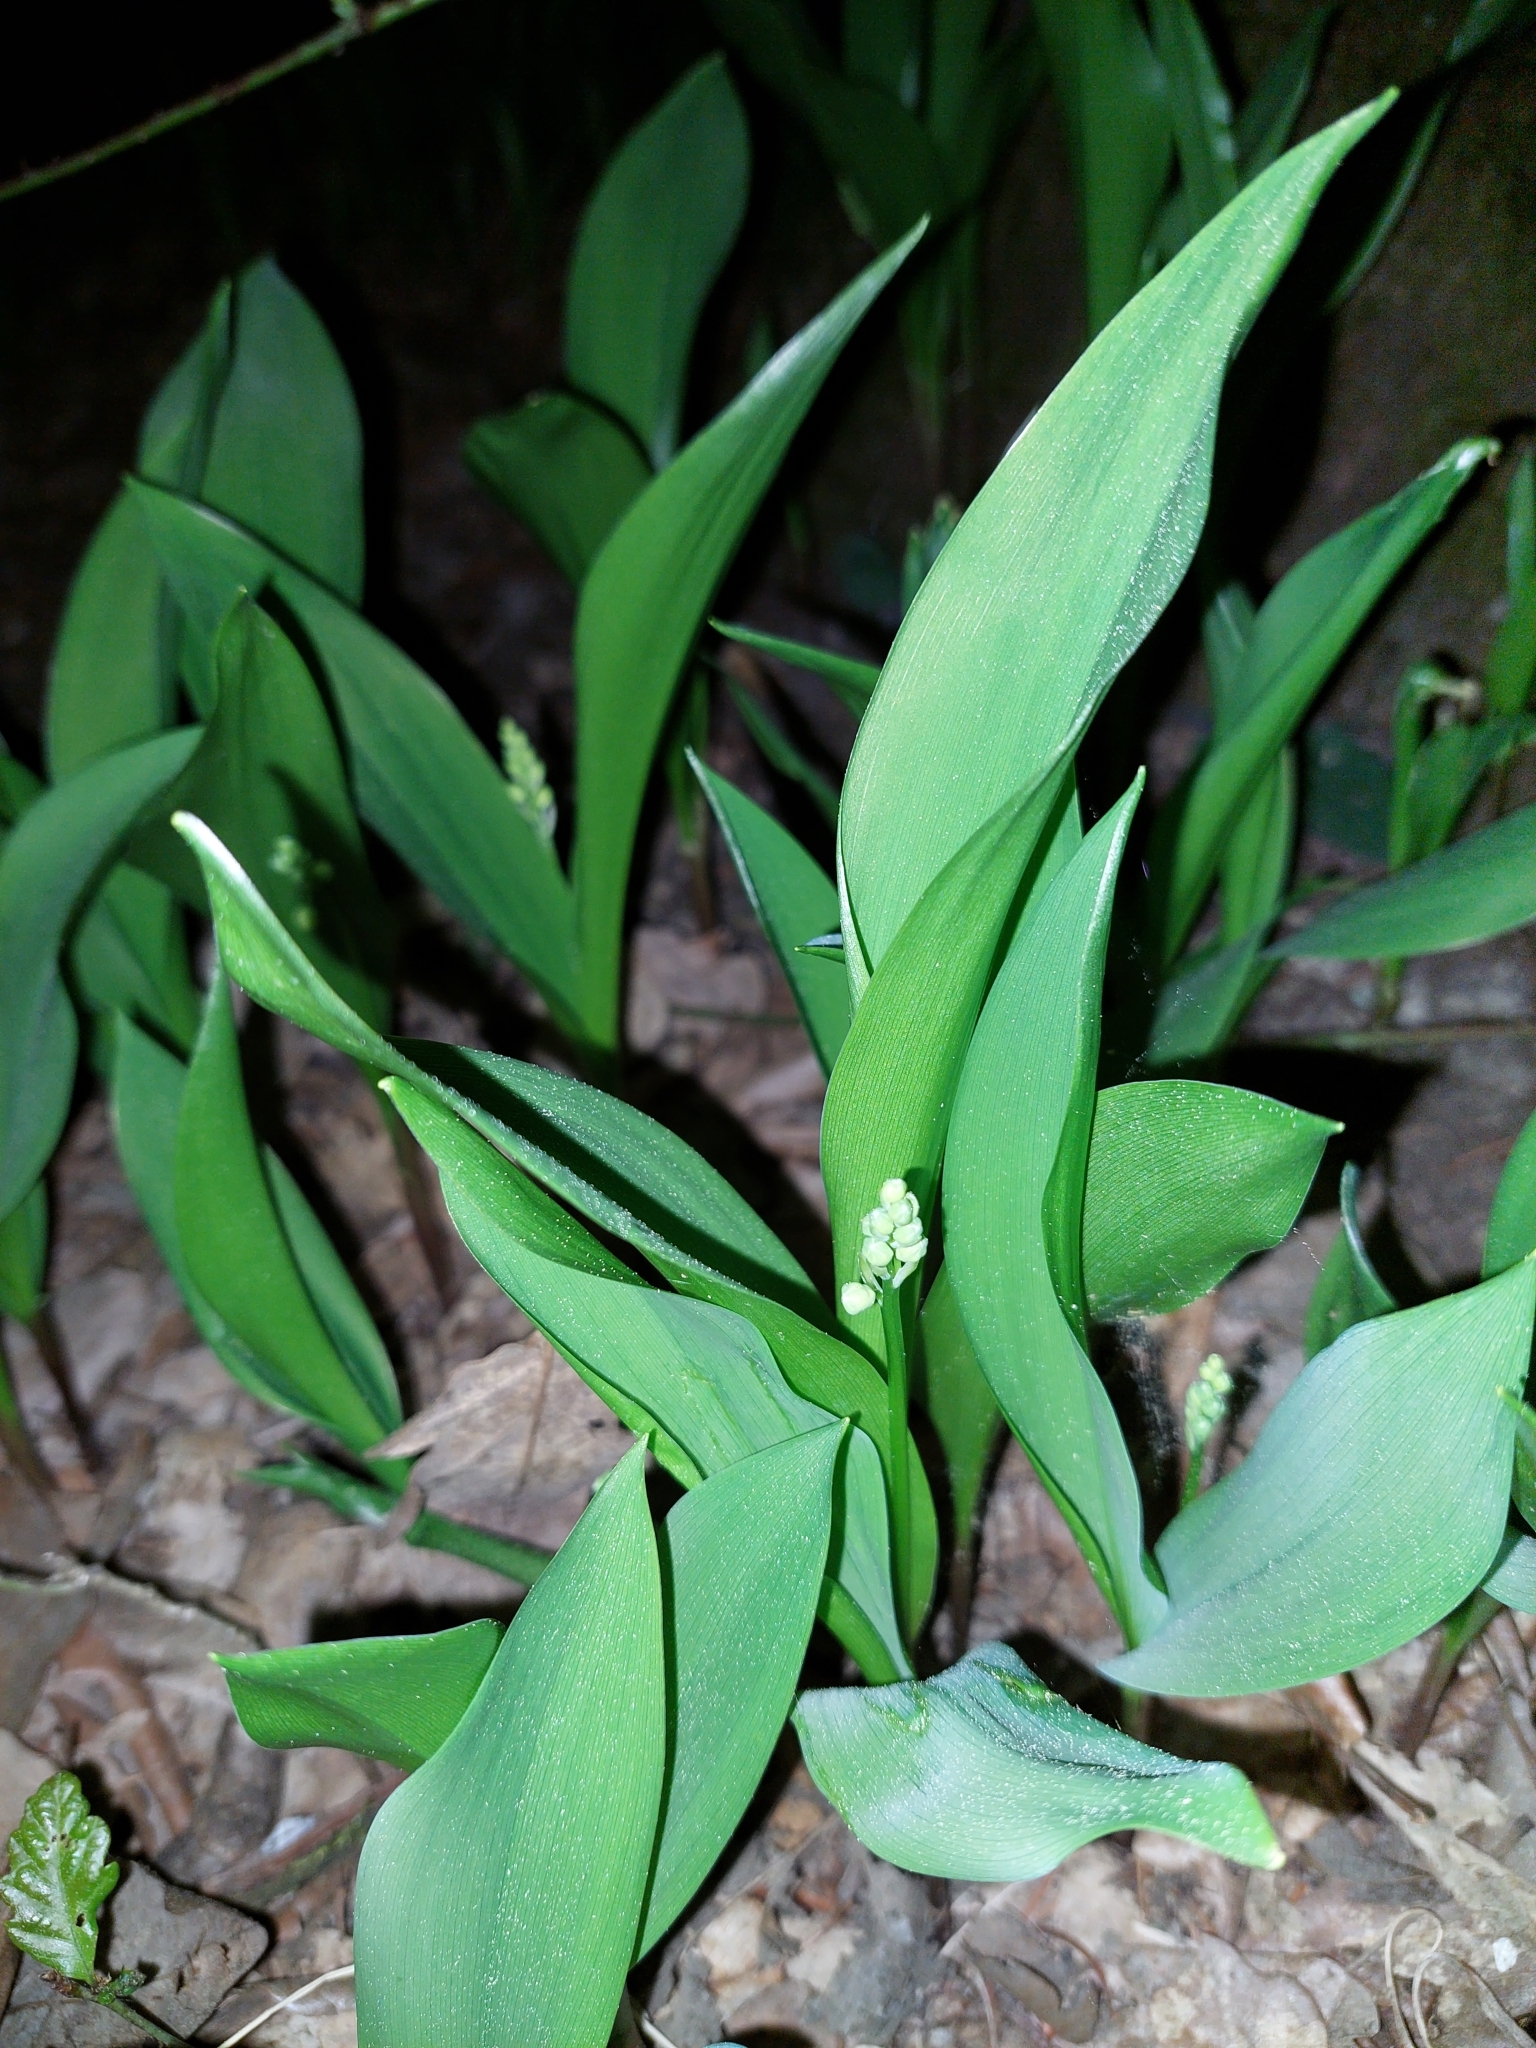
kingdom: Plantae
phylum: Tracheophyta
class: Liliopsida
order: Asparagales
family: Asparagaceae
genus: Convallaria
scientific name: Convallaria majalis
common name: Lily-of-the-valley
